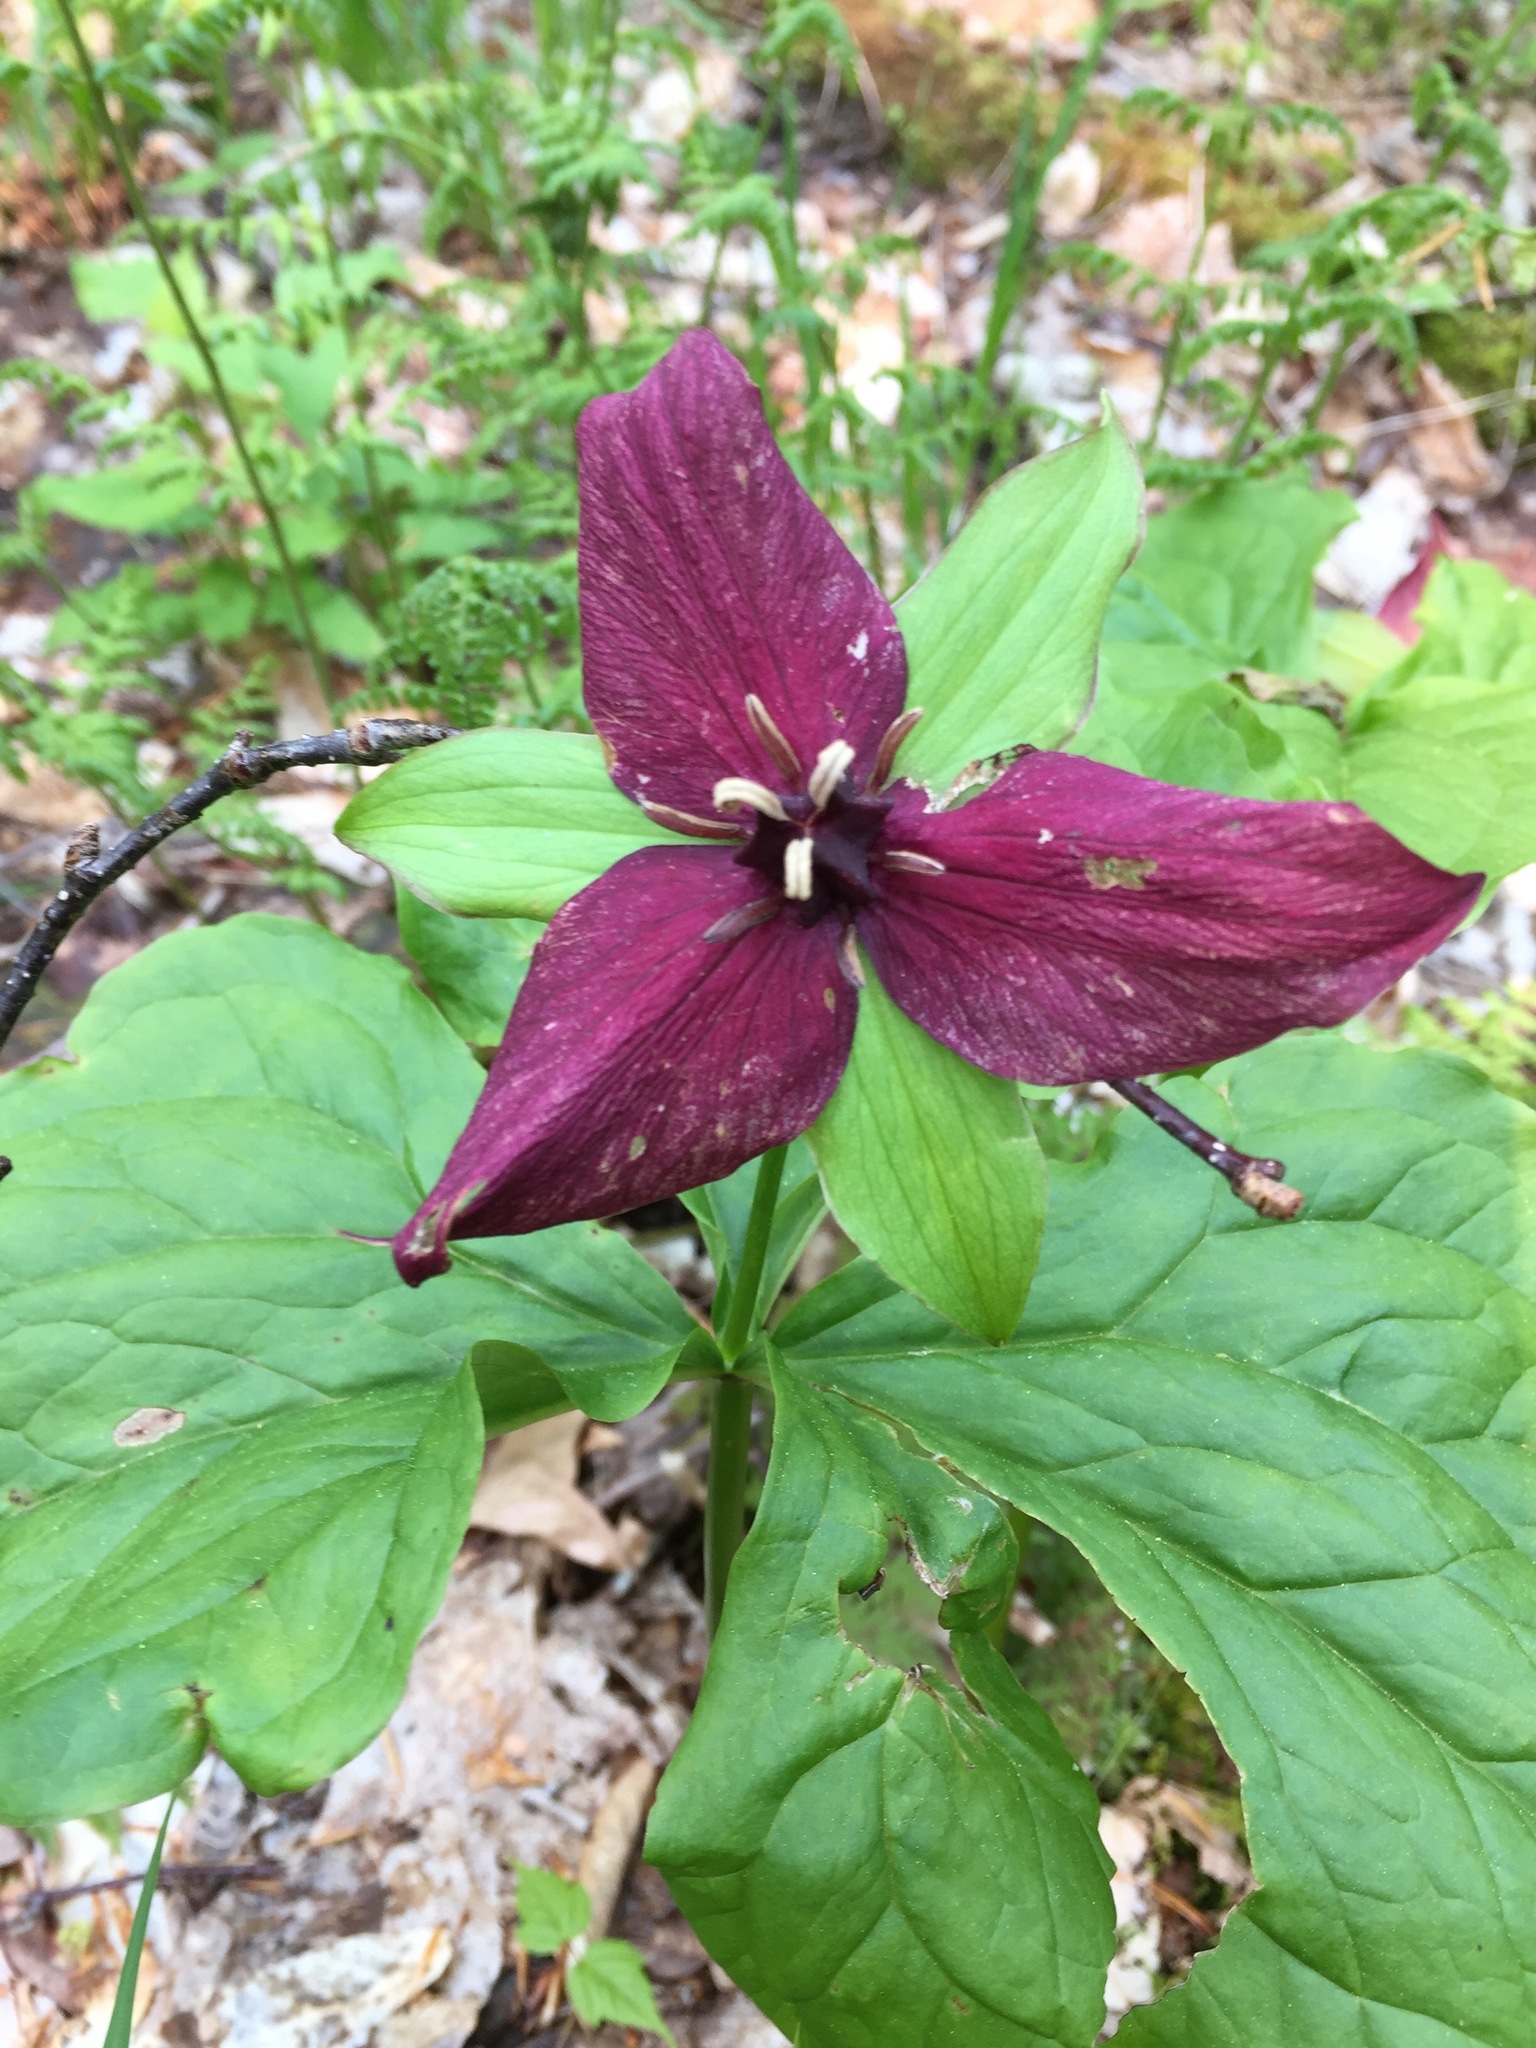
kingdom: Plantae
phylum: Tracheophyta
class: Liliopsida
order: Liliales
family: Melanthiaceae
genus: Trillium
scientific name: Trillium erectum
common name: Purple trillium
